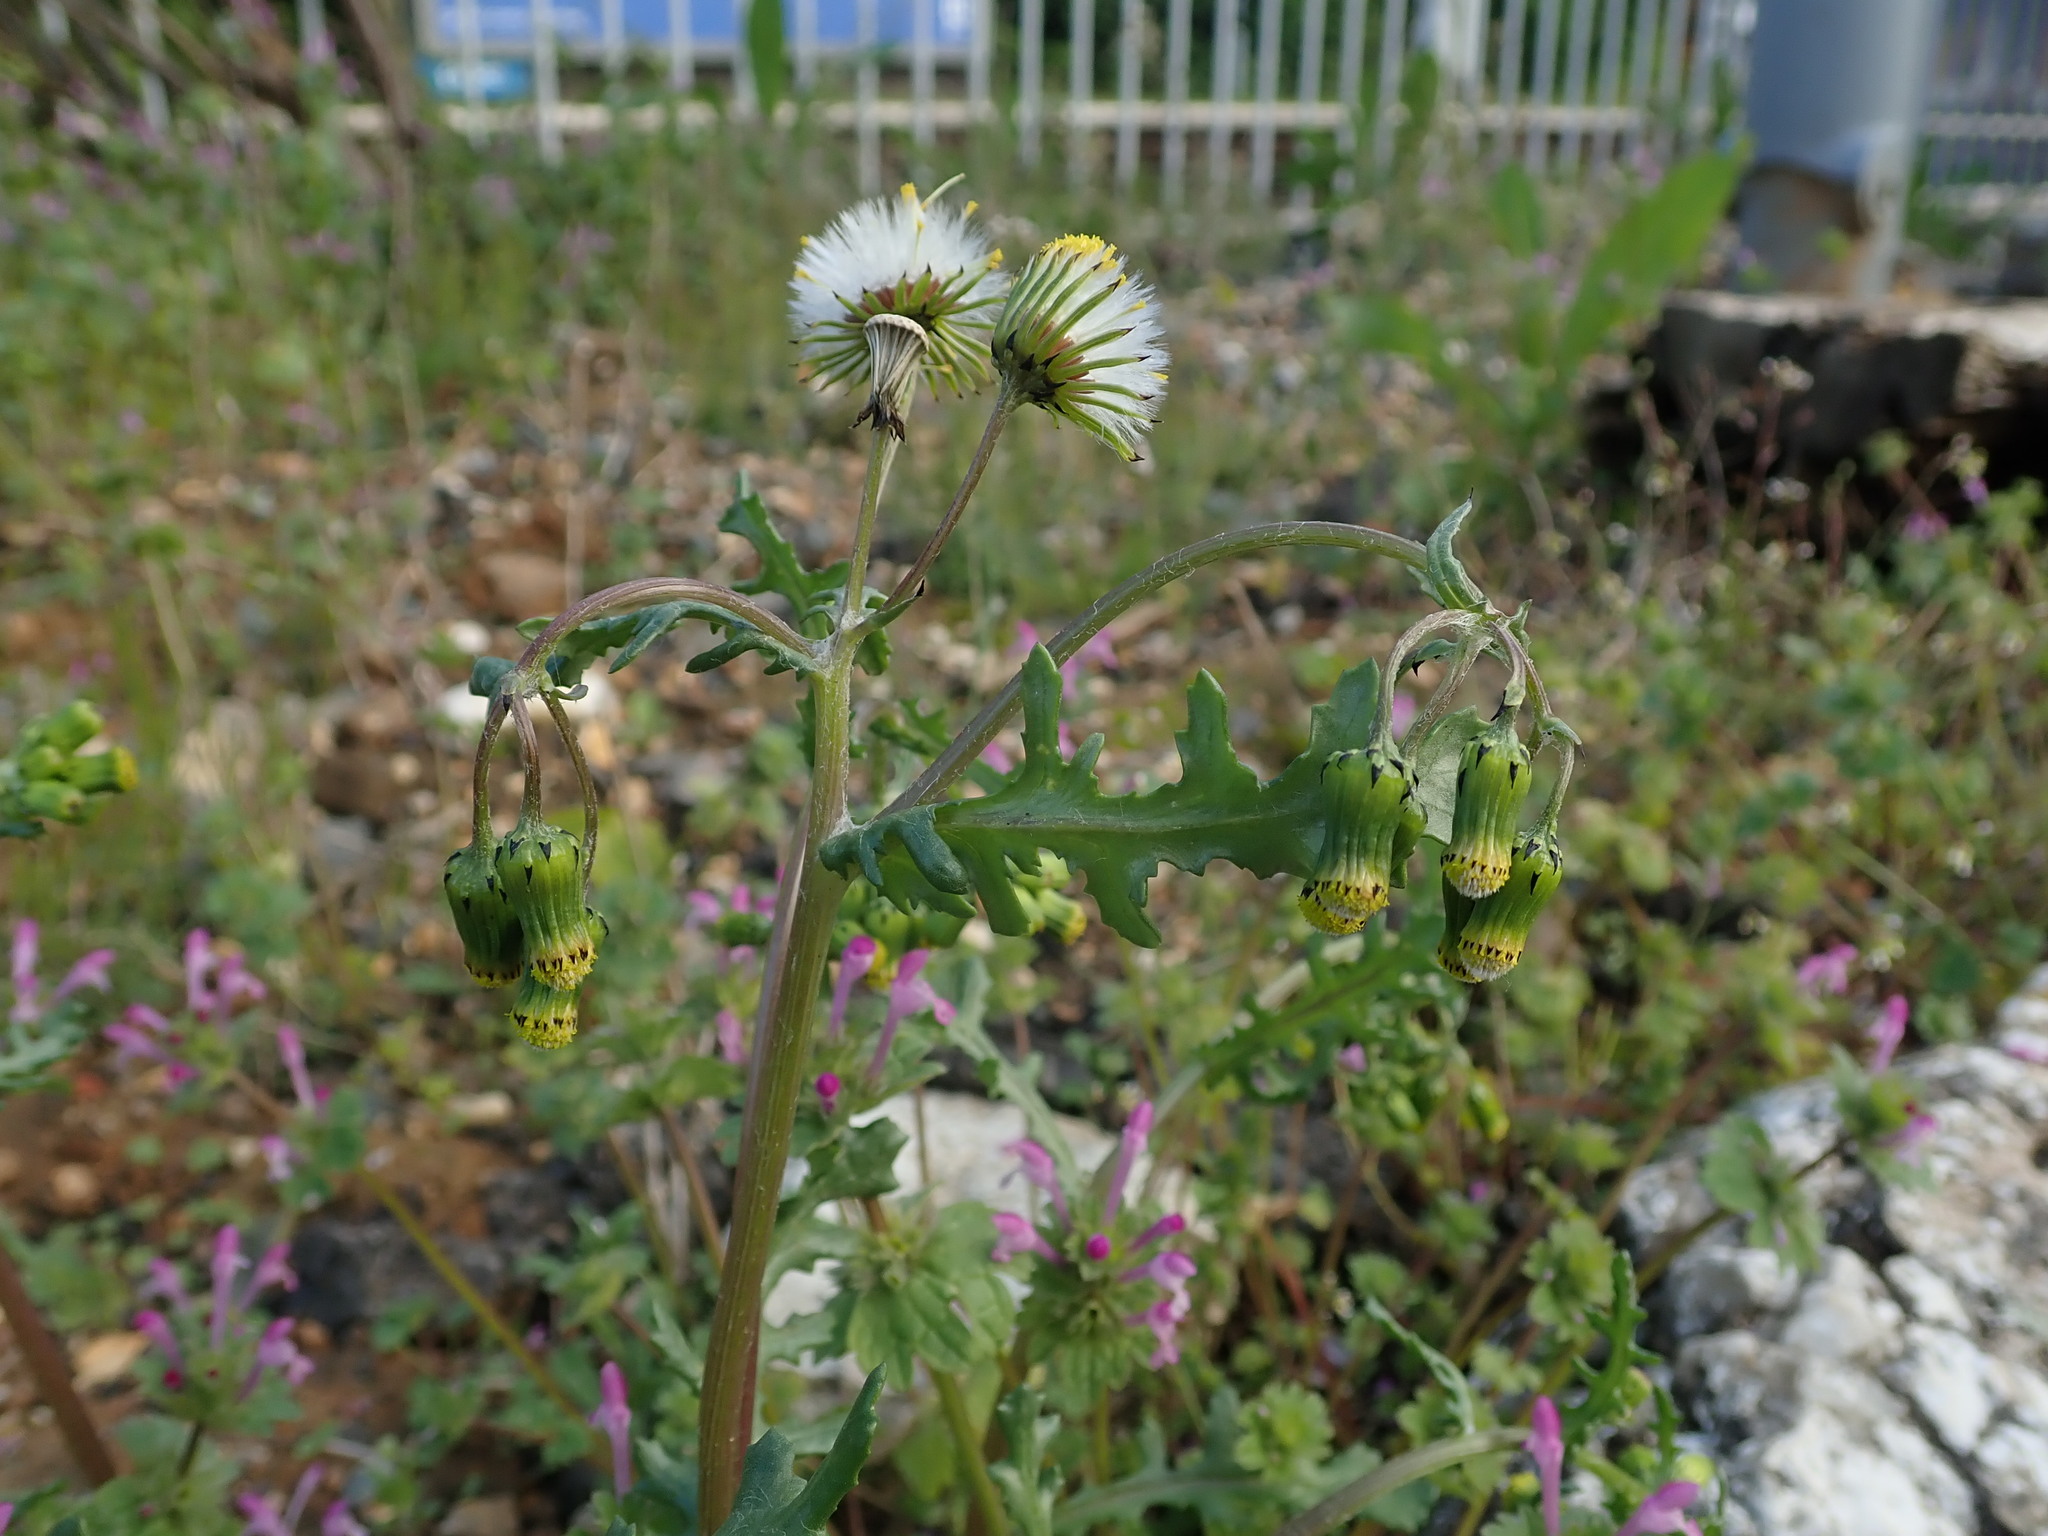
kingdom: Plantae
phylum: Tracheophyta
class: Magnoliopsida
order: Asterales
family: Asteraceae
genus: Senecio
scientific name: Senecio vulgaris
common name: Old-man-in-the-spring
